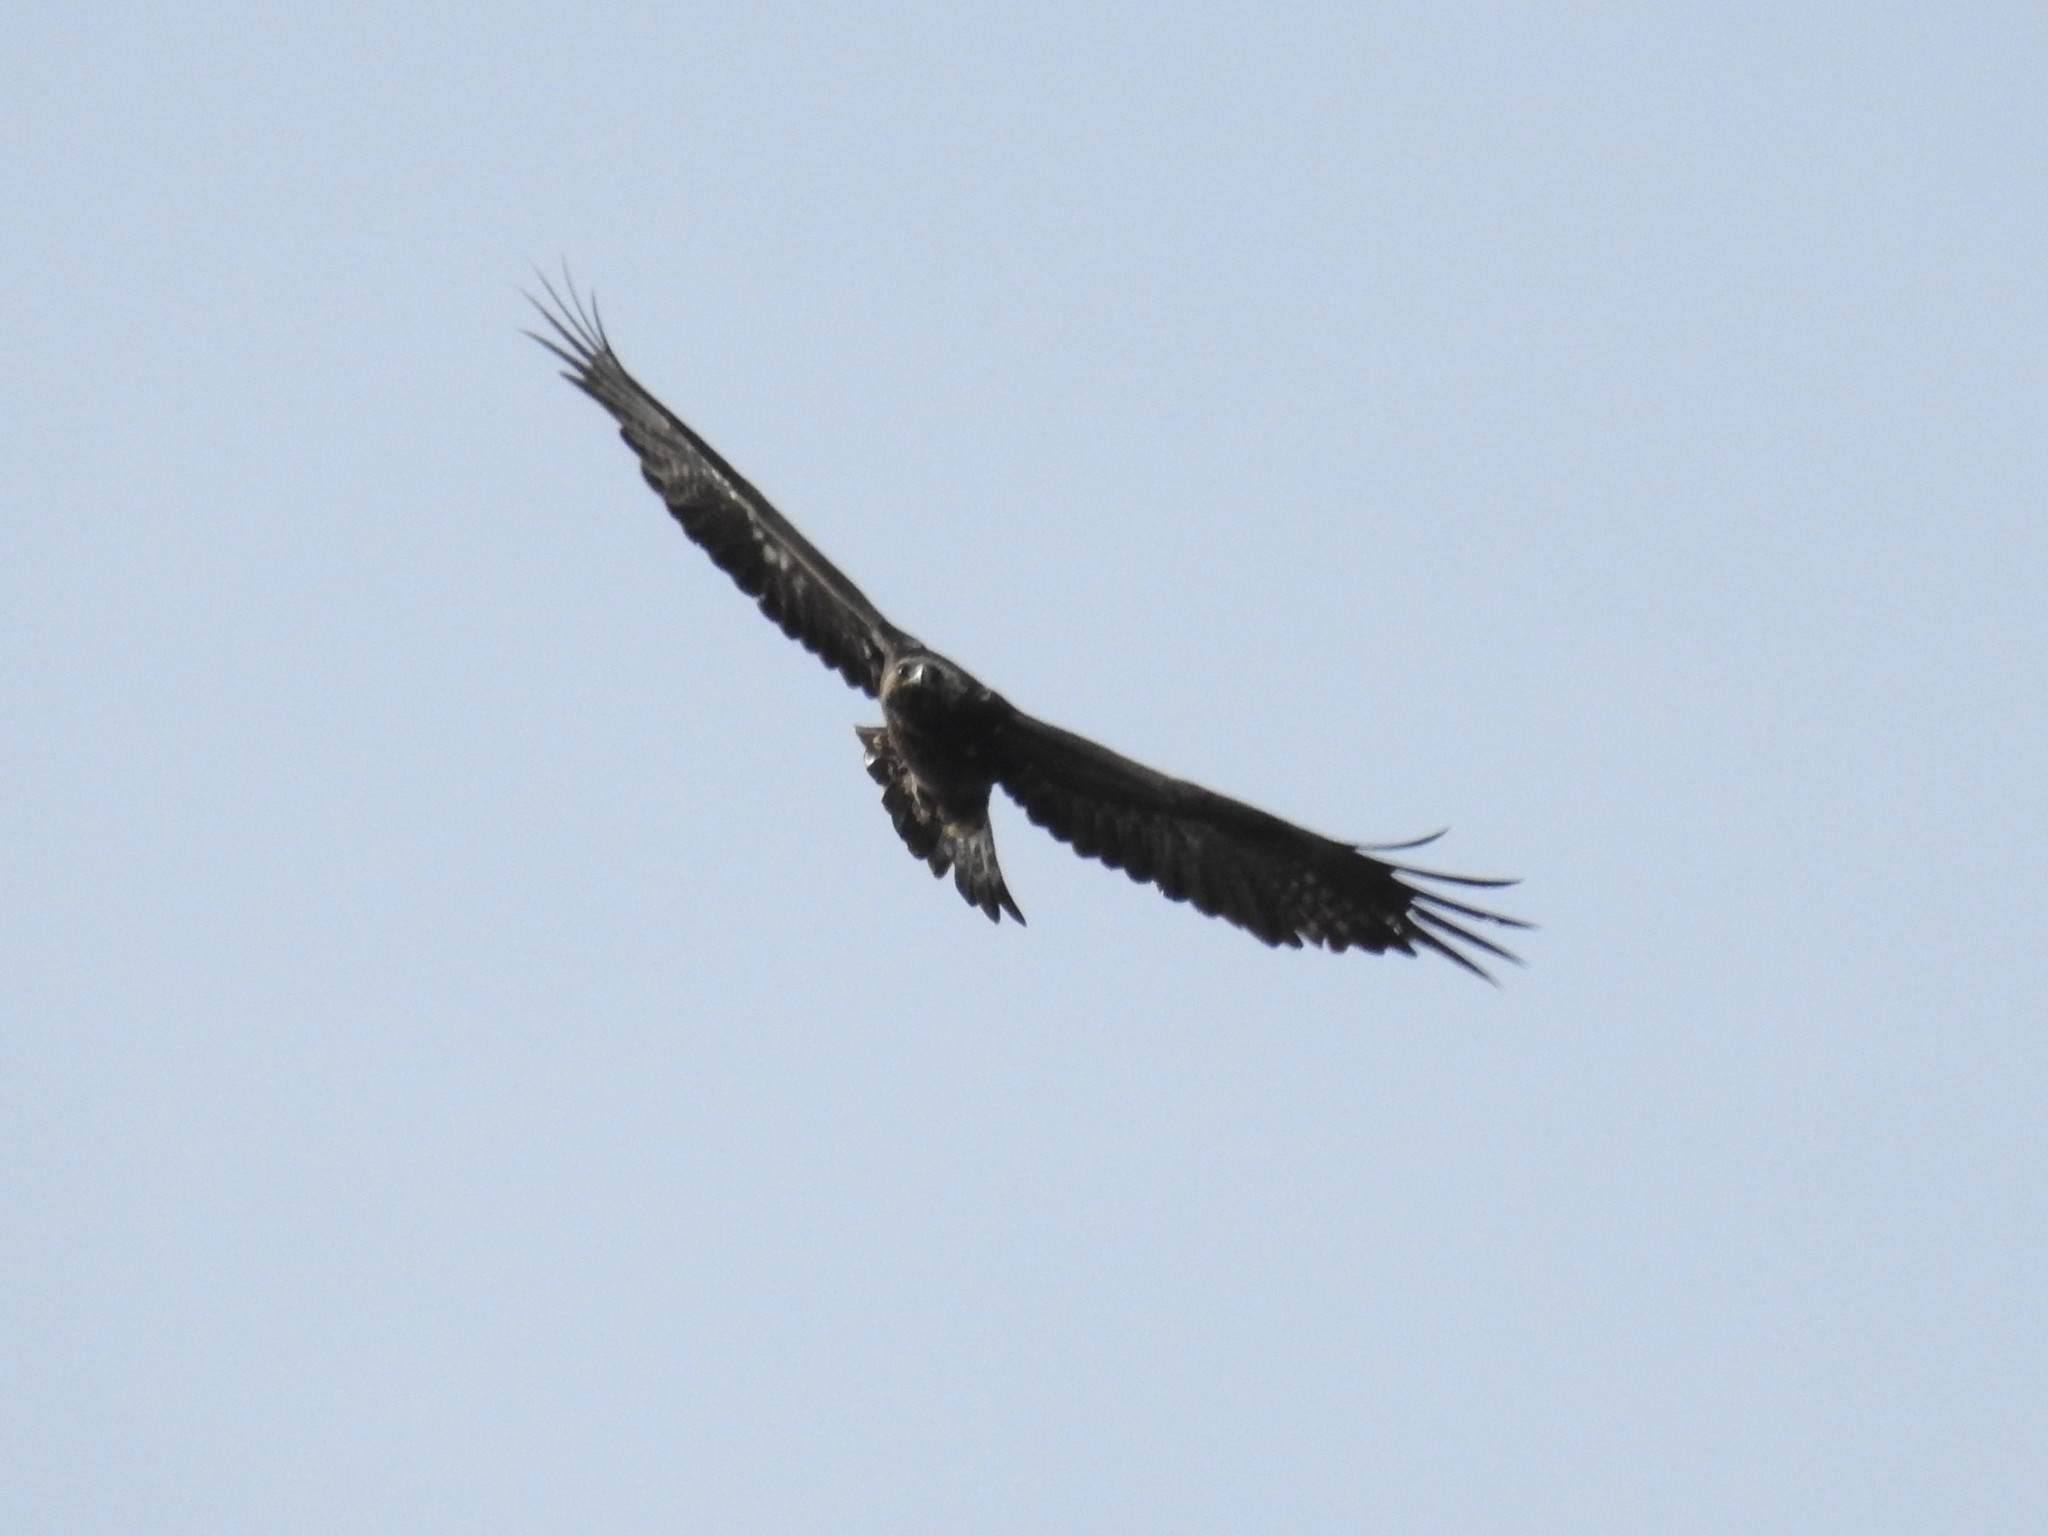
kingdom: Animalia
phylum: Chordata
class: Aves
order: Accipitriformes
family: Accipitridae
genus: Aquila
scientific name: Aquila chrysaetos
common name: Golden eagle
